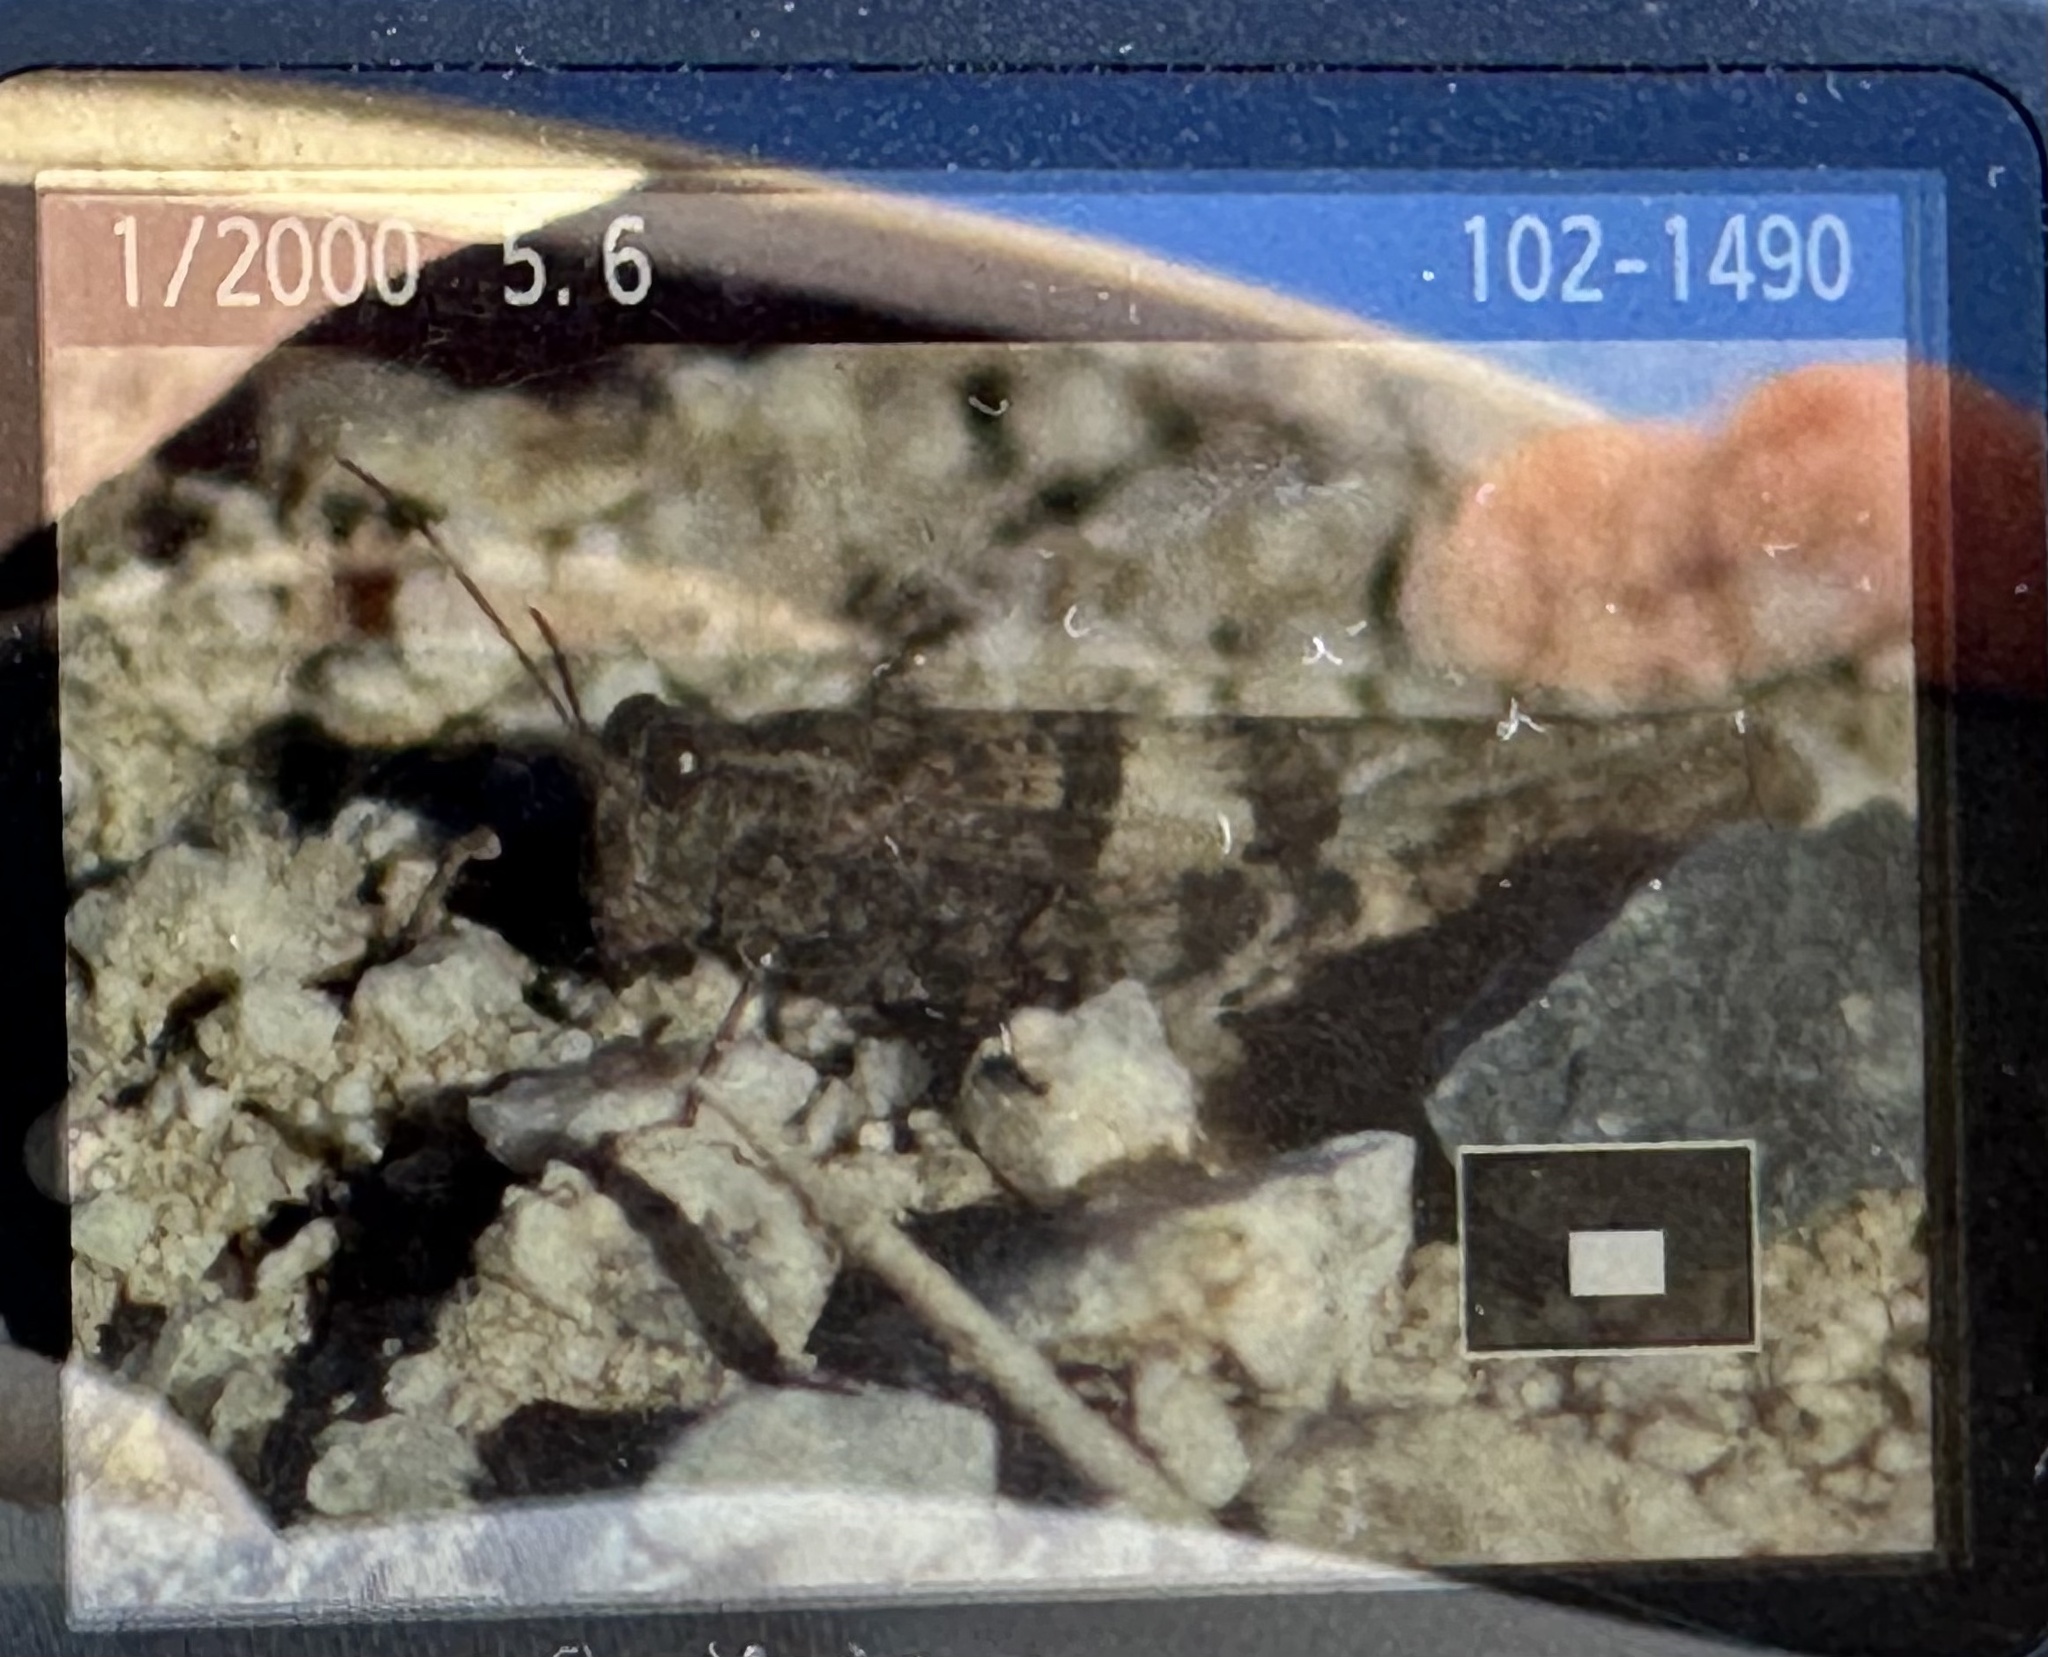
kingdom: Animalia
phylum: Arthropoda
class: Insecta
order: Orthoptera
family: Acrididae
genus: Trimerotropis
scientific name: Trimerotropis pallidipennis
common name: Pallid-winged grasshopper
